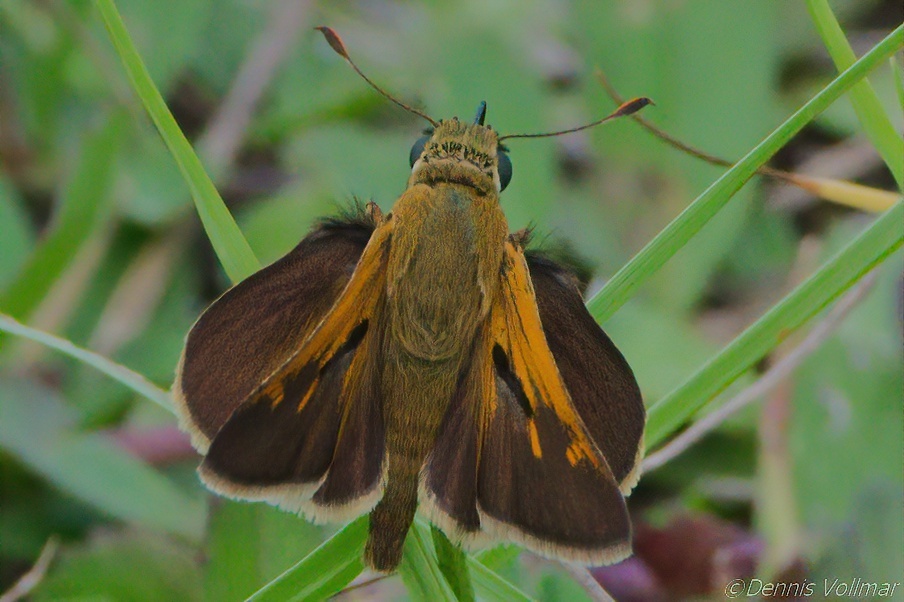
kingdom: Animalia
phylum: Arthropoda
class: Insecta
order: Lepidoptera
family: Hesperiidae
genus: Polites
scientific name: Polites themistocles
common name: Tawny-edged skipper
